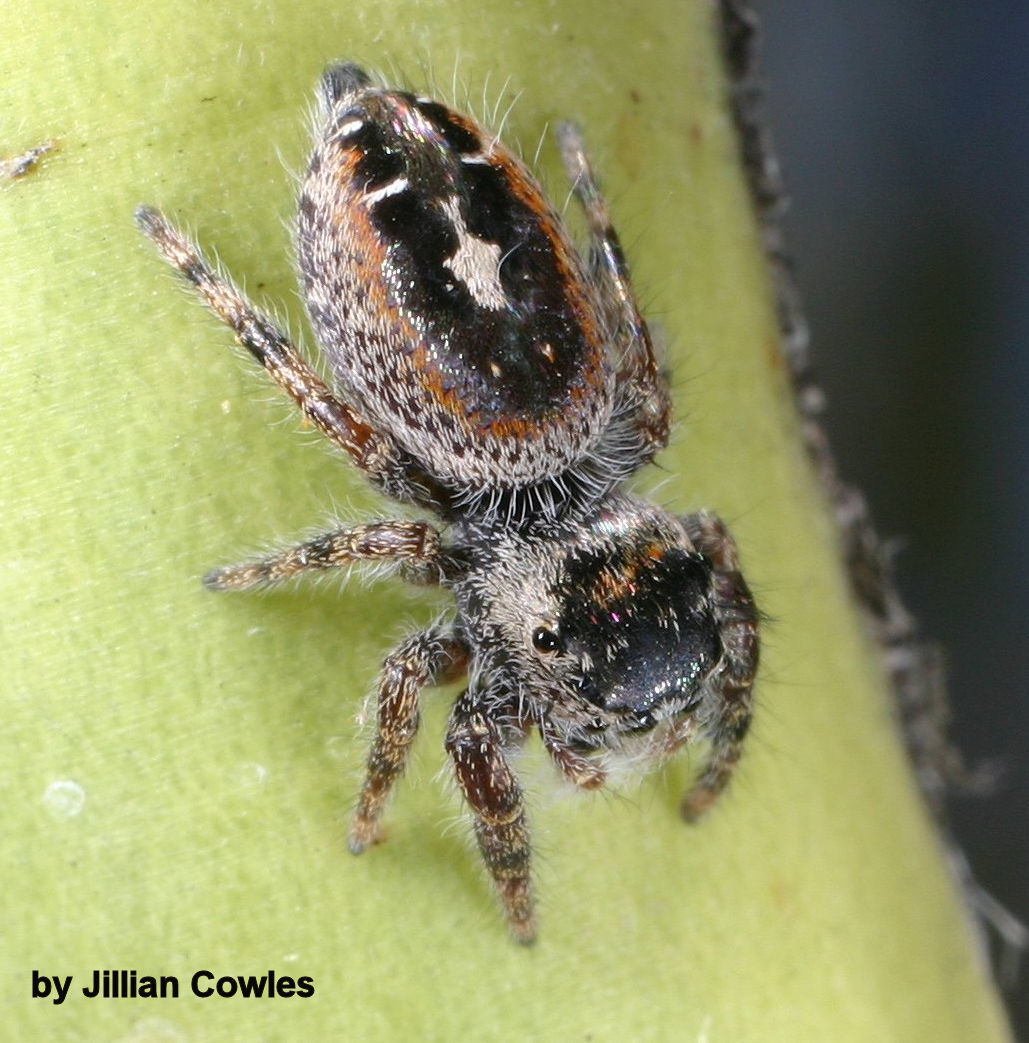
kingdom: Animalia
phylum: Arthropoda
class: Arachnida
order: Araneae
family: Salticidae
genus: Phidippus
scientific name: Phidippus californicus
